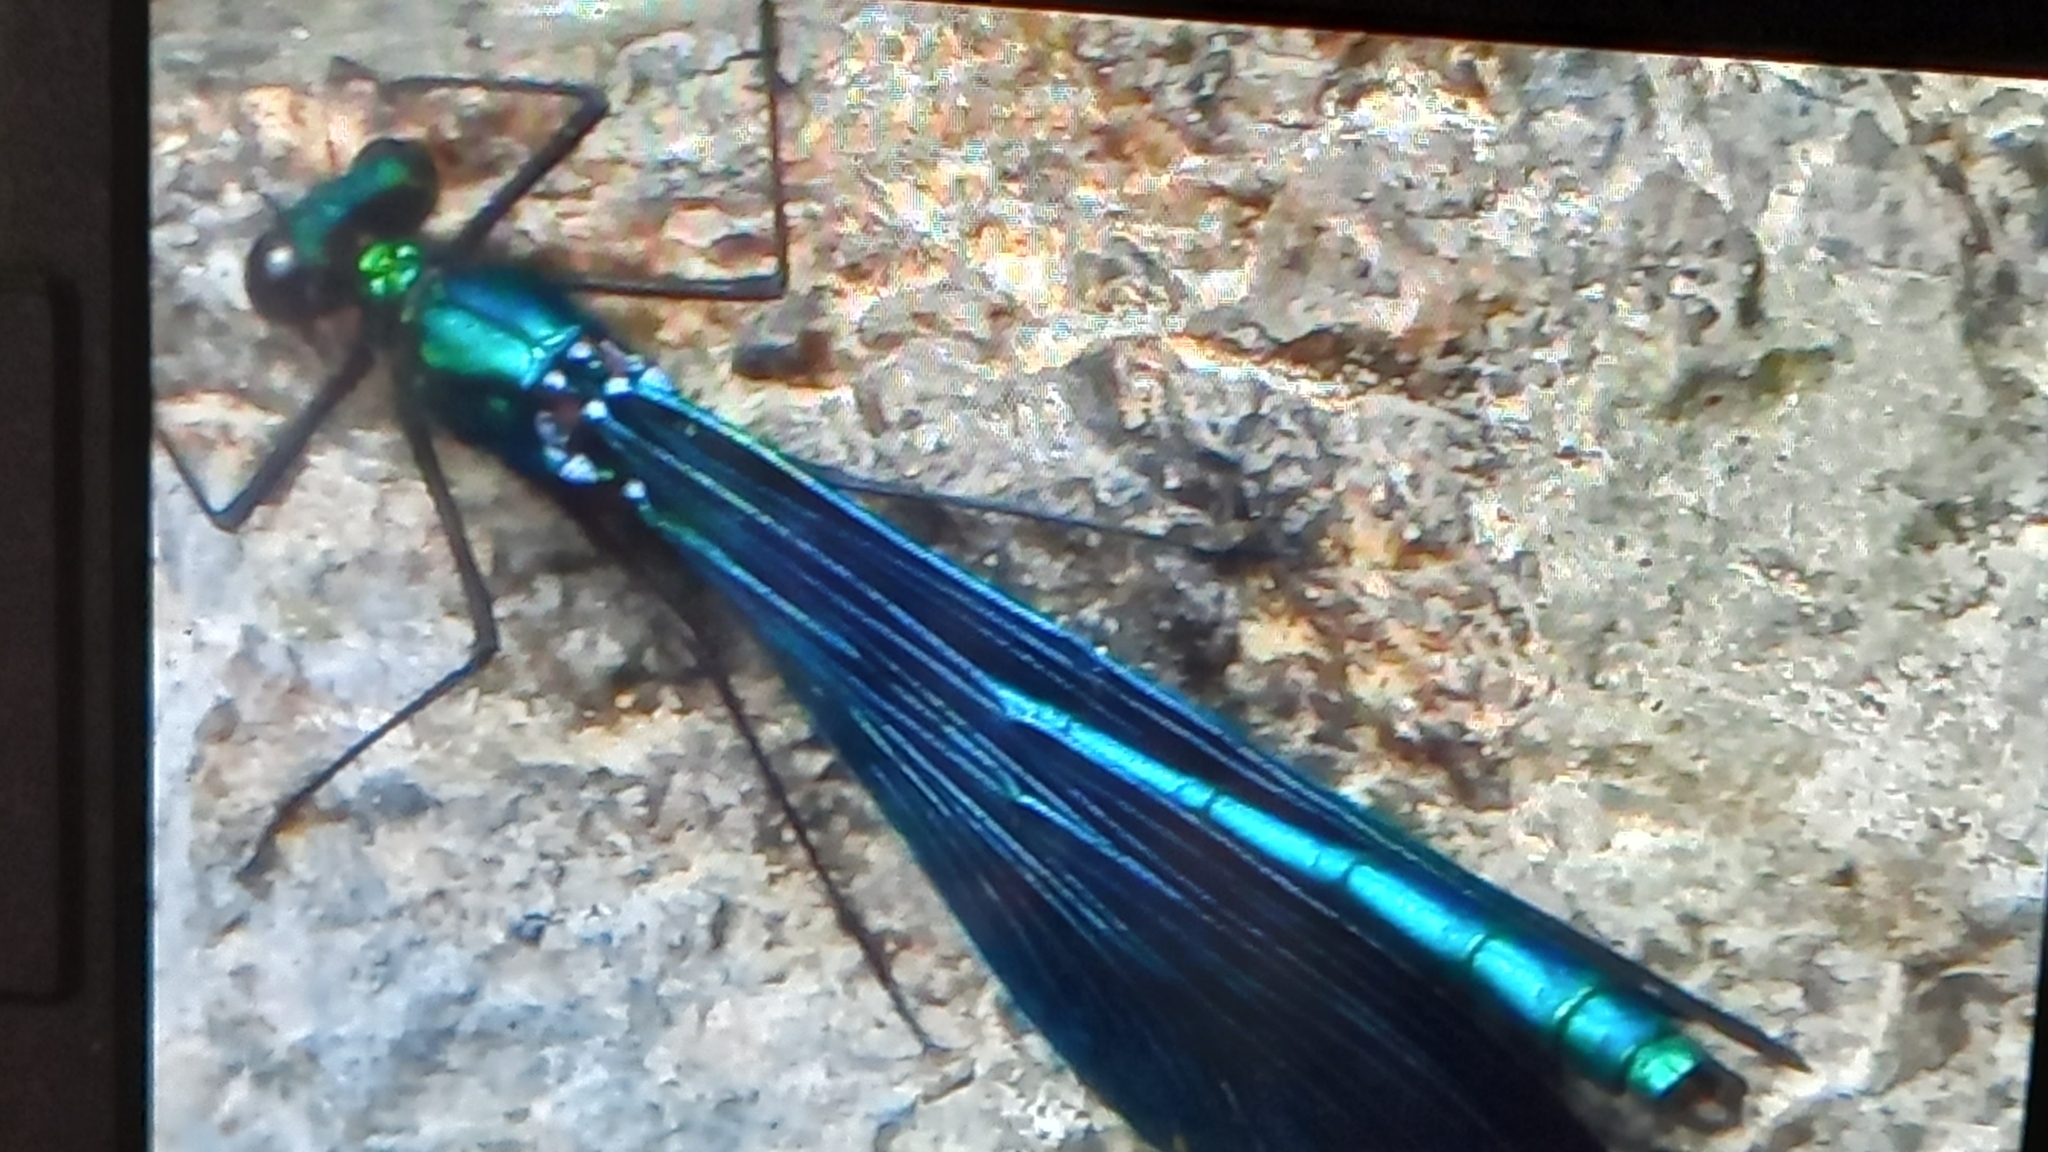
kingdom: Animalia
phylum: Arthropoda
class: Insecta
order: Odonata
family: Calopterygidae
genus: Calopteryx
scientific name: Calopteryx virgo
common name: Beautiful demoiselle
